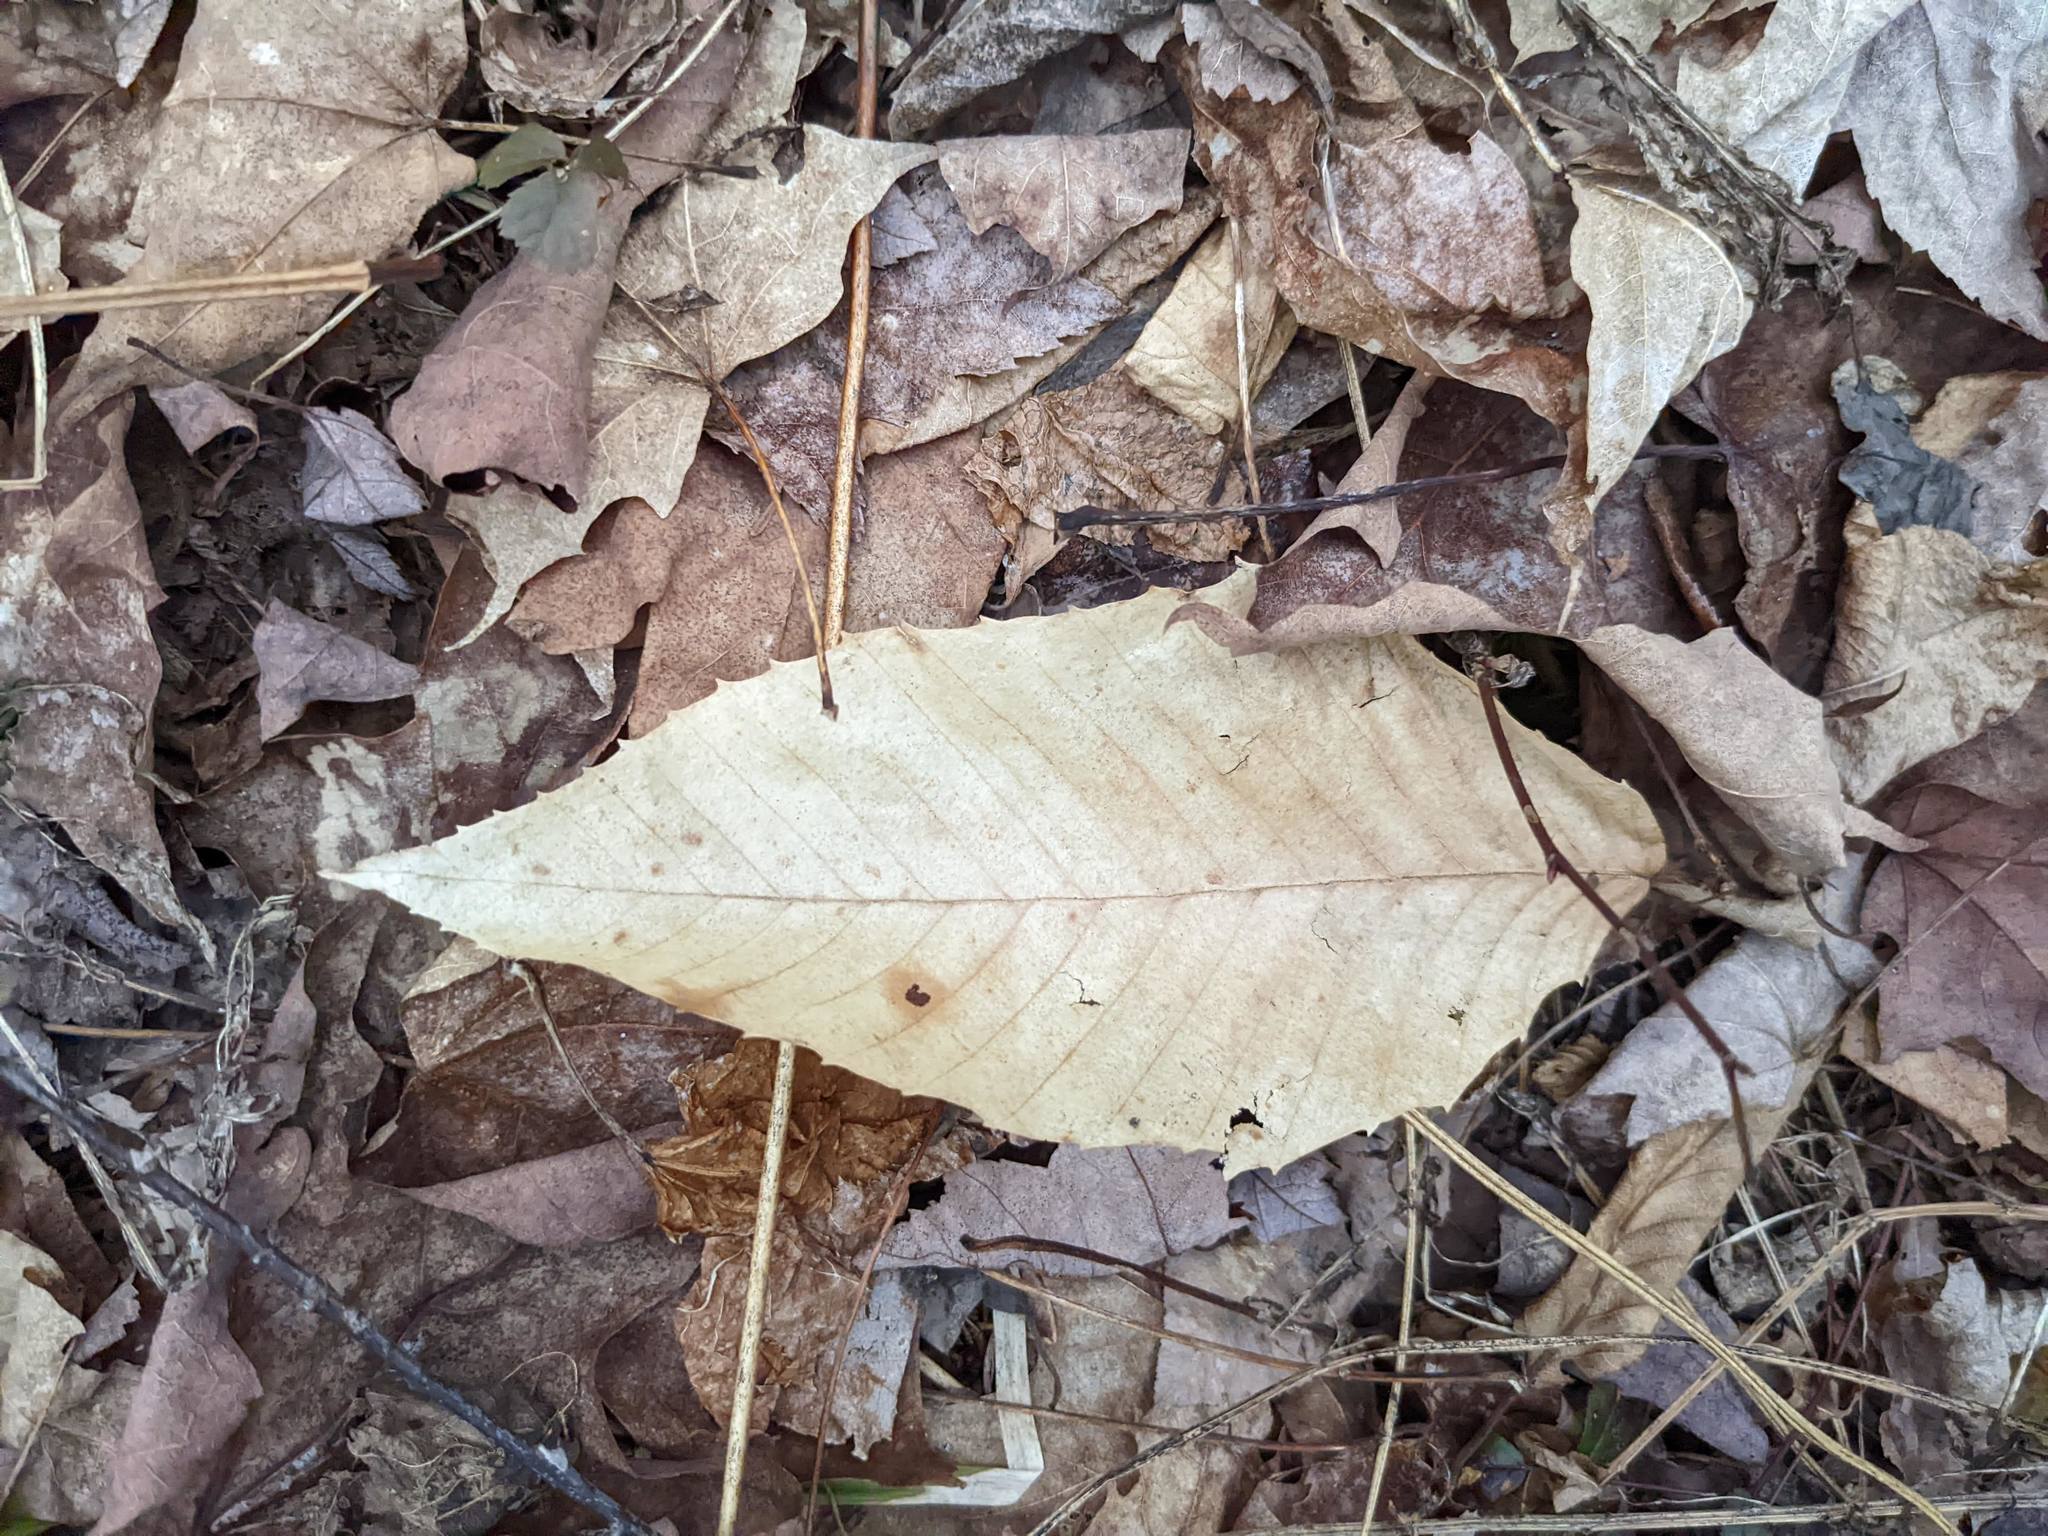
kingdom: Plantae
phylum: Tracheophyta
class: Magnoliopsida
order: Fagales
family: Fagaceae
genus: Fagus
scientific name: Fagus grandifolia
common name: American beech
